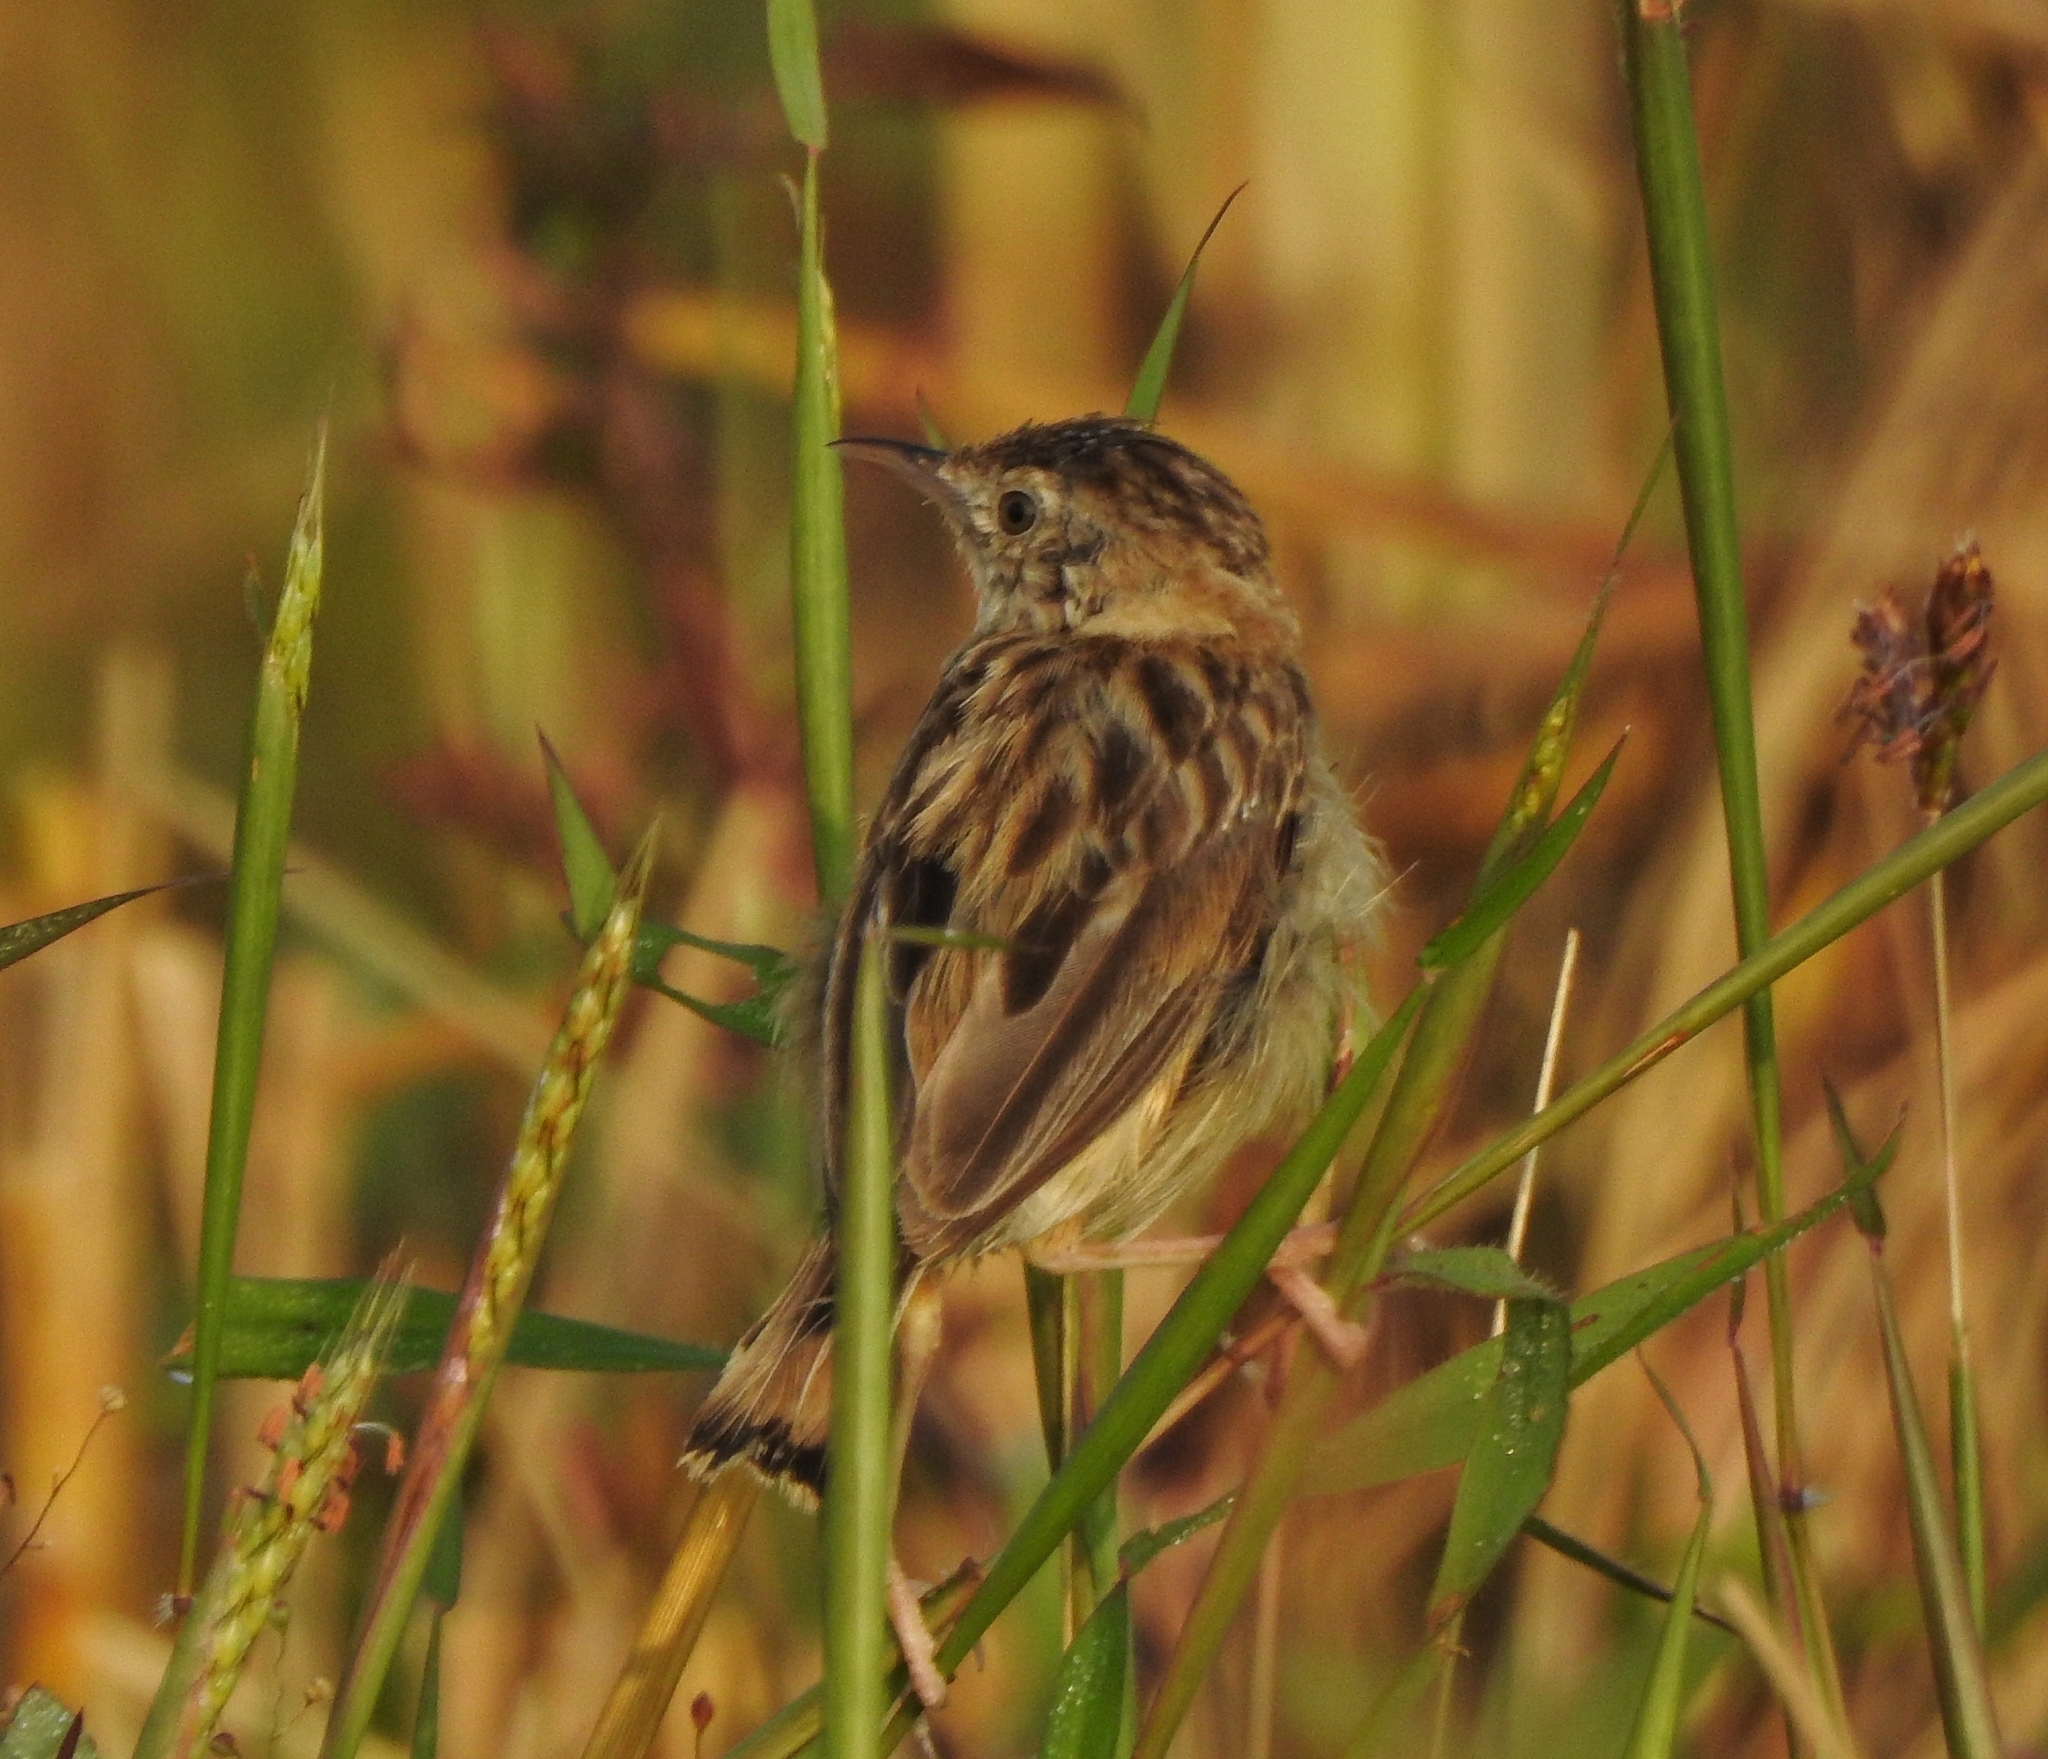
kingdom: Animalia
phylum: Chordata
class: Aves
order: Passeriformes
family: Cisticolidae
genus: Cisticola
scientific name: Cisticola juncidis
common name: Zitting cisticola
